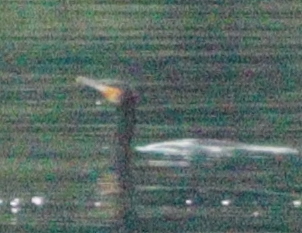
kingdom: Animalia
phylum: Chordata
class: Aves
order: Suliformes
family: Phalacrocoracidae
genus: Phalacrocorax
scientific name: Phalacrocorax carbo
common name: Great cormorant
